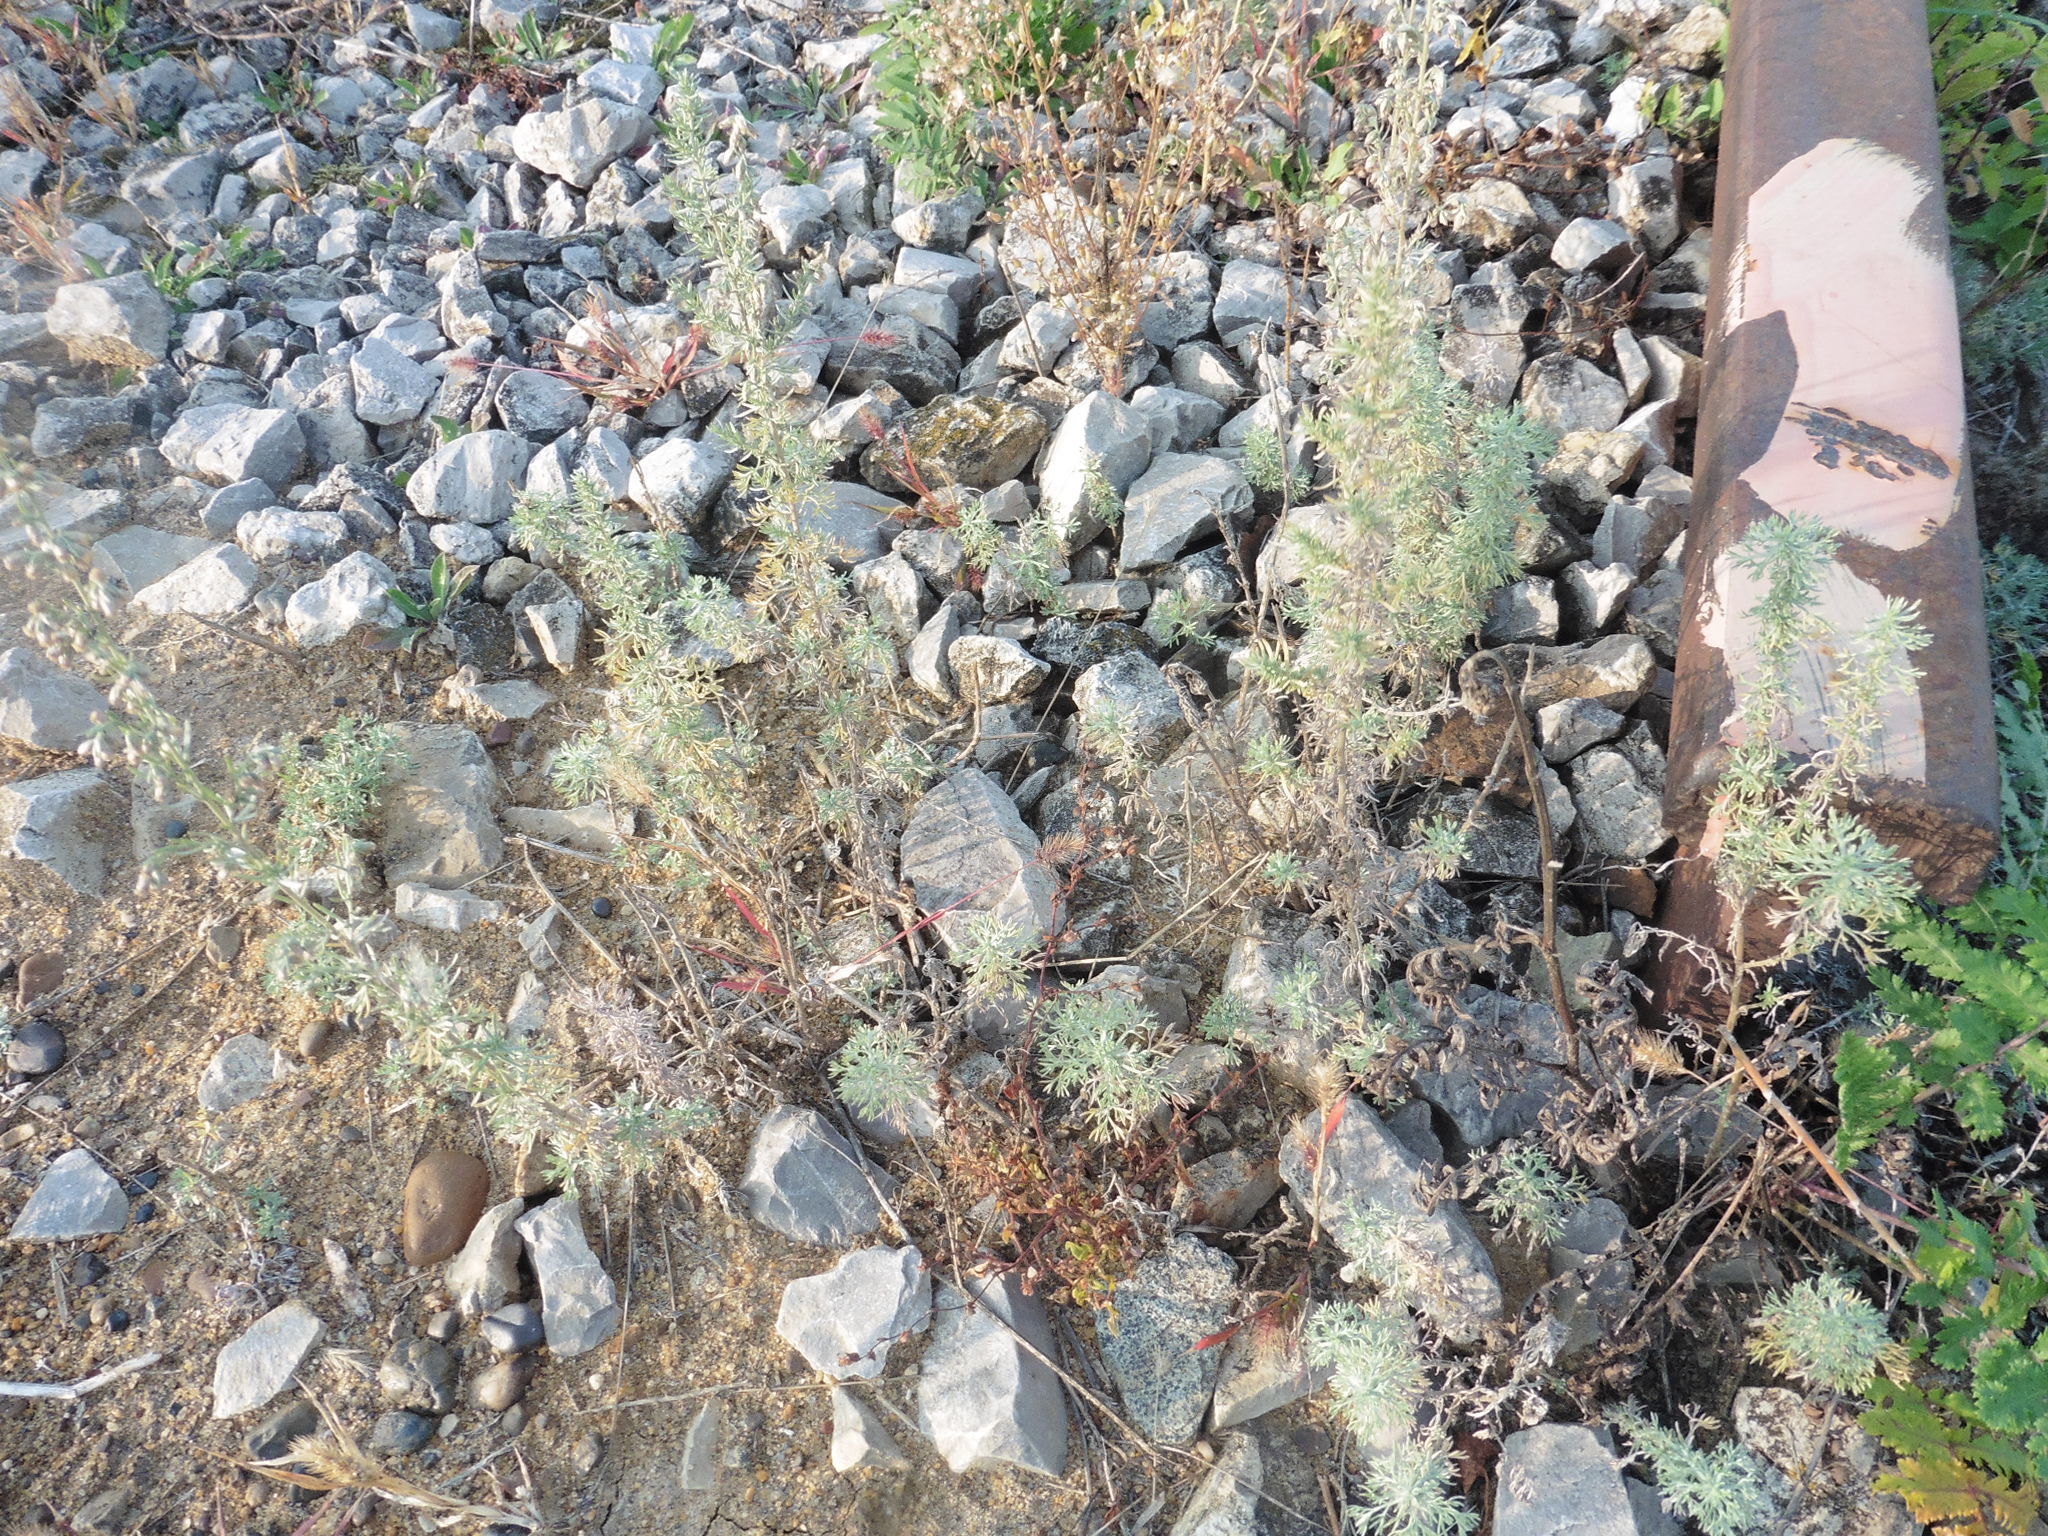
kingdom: Plantae
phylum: Tracheophyta
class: Magnoliopsida
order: Asterales
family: Asteraceae
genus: Artemisia
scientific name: Artemisia austriaca
